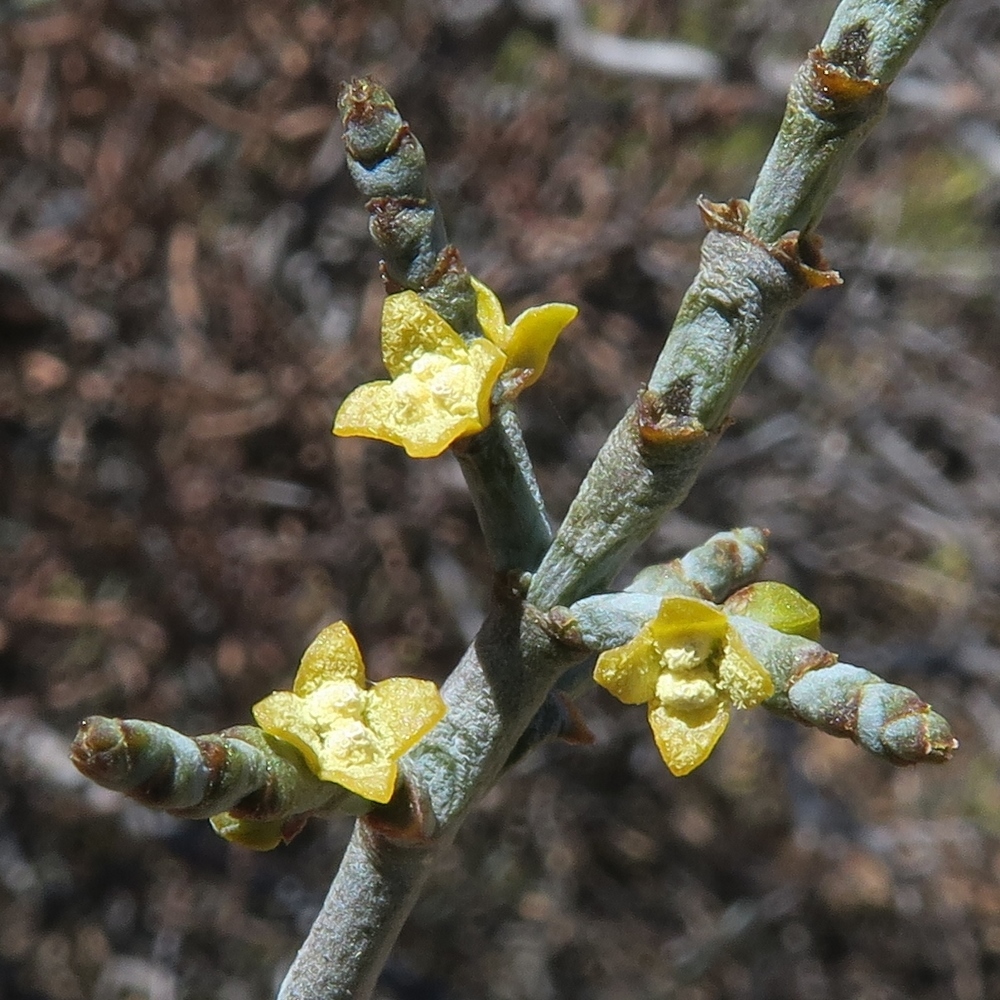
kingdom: Plantae
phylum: Tracheophyta
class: Magnoliopsida
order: Santalales
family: Viscaceae
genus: Viscum
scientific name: Viscum capense
